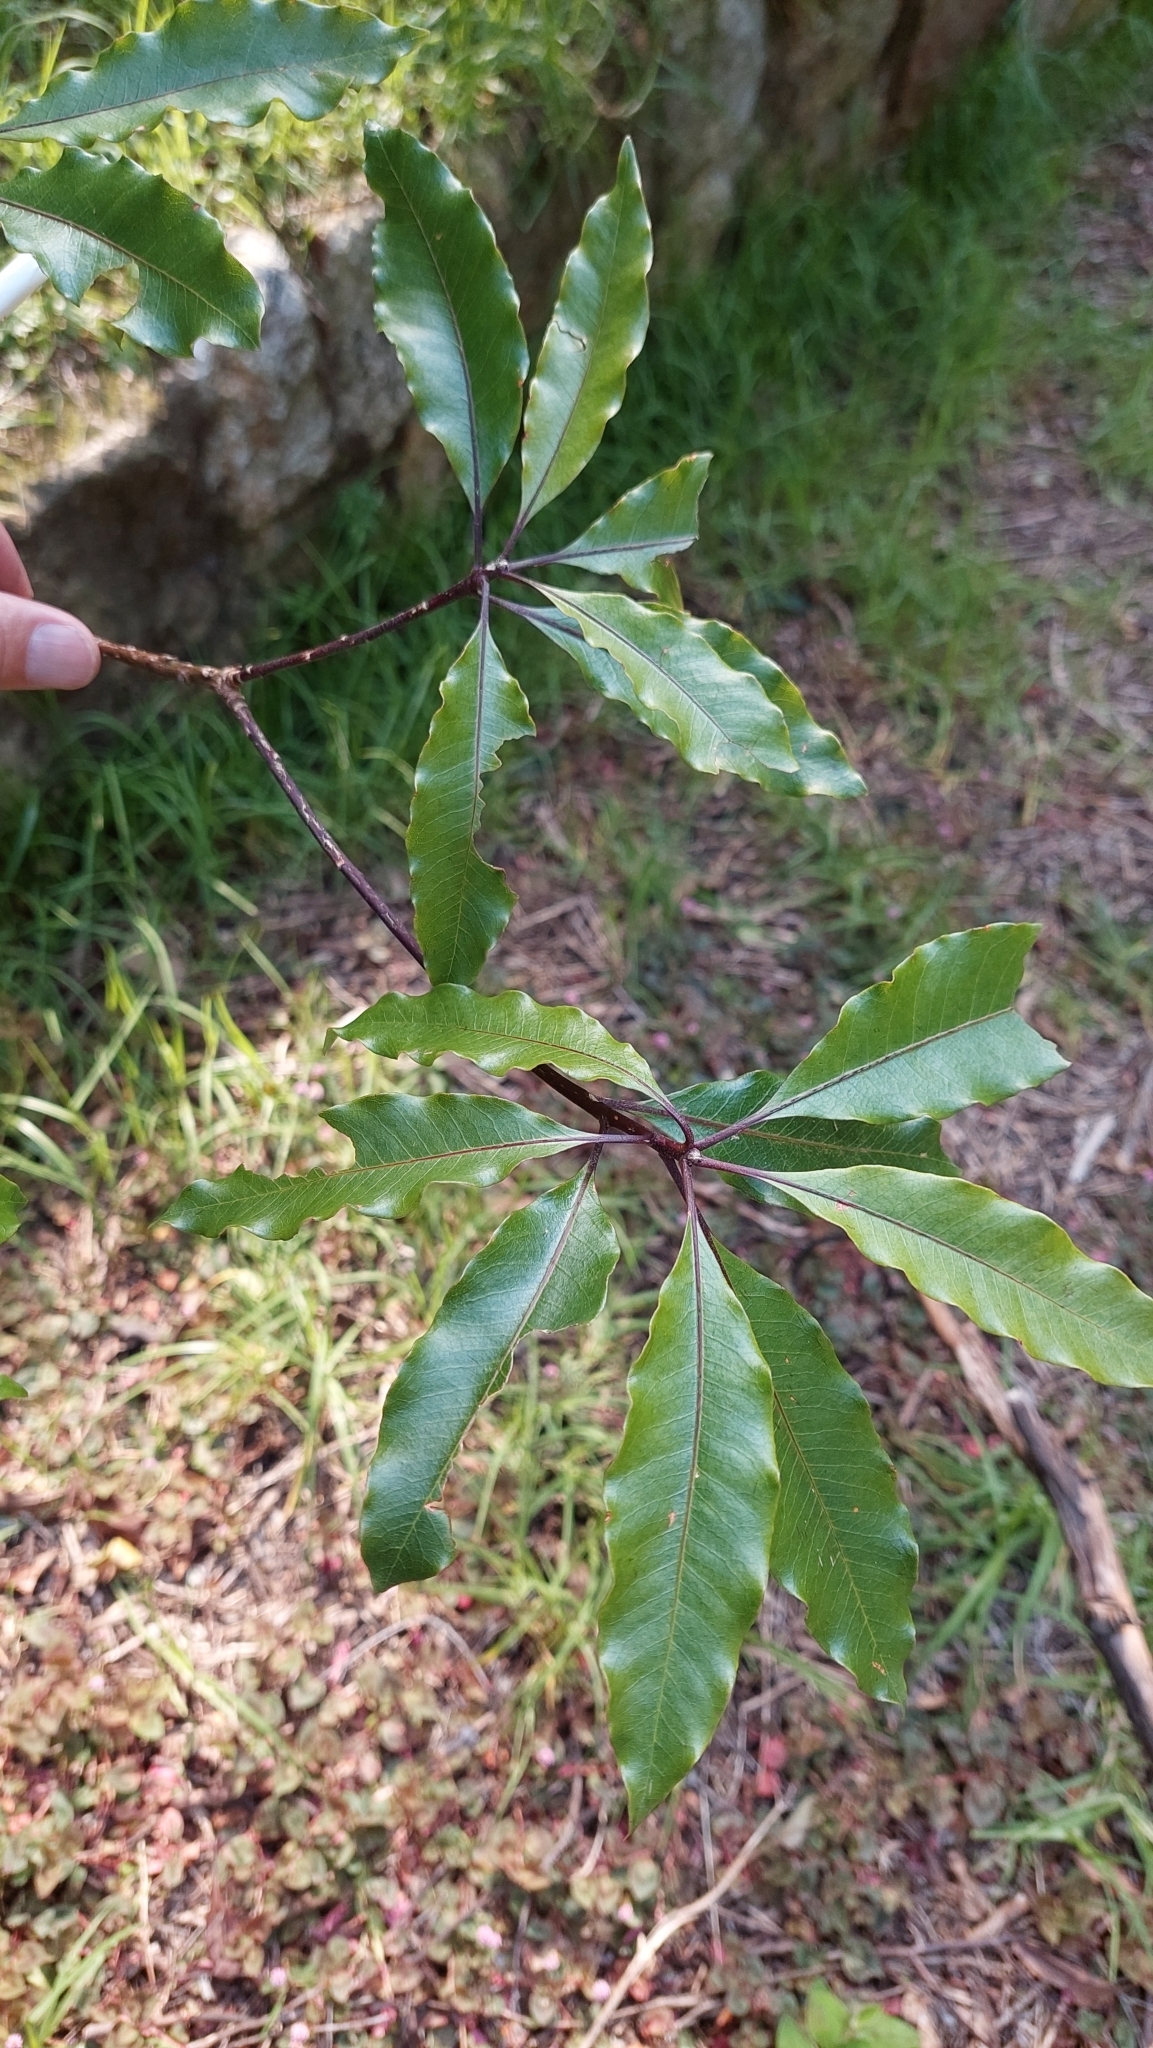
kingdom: Plantae
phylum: Tracheophyta
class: Magnoliopsida
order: Apiales
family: Pittosporaceae
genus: Pittosporum
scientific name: Pittosporum undulatum
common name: Australian cheesewood
